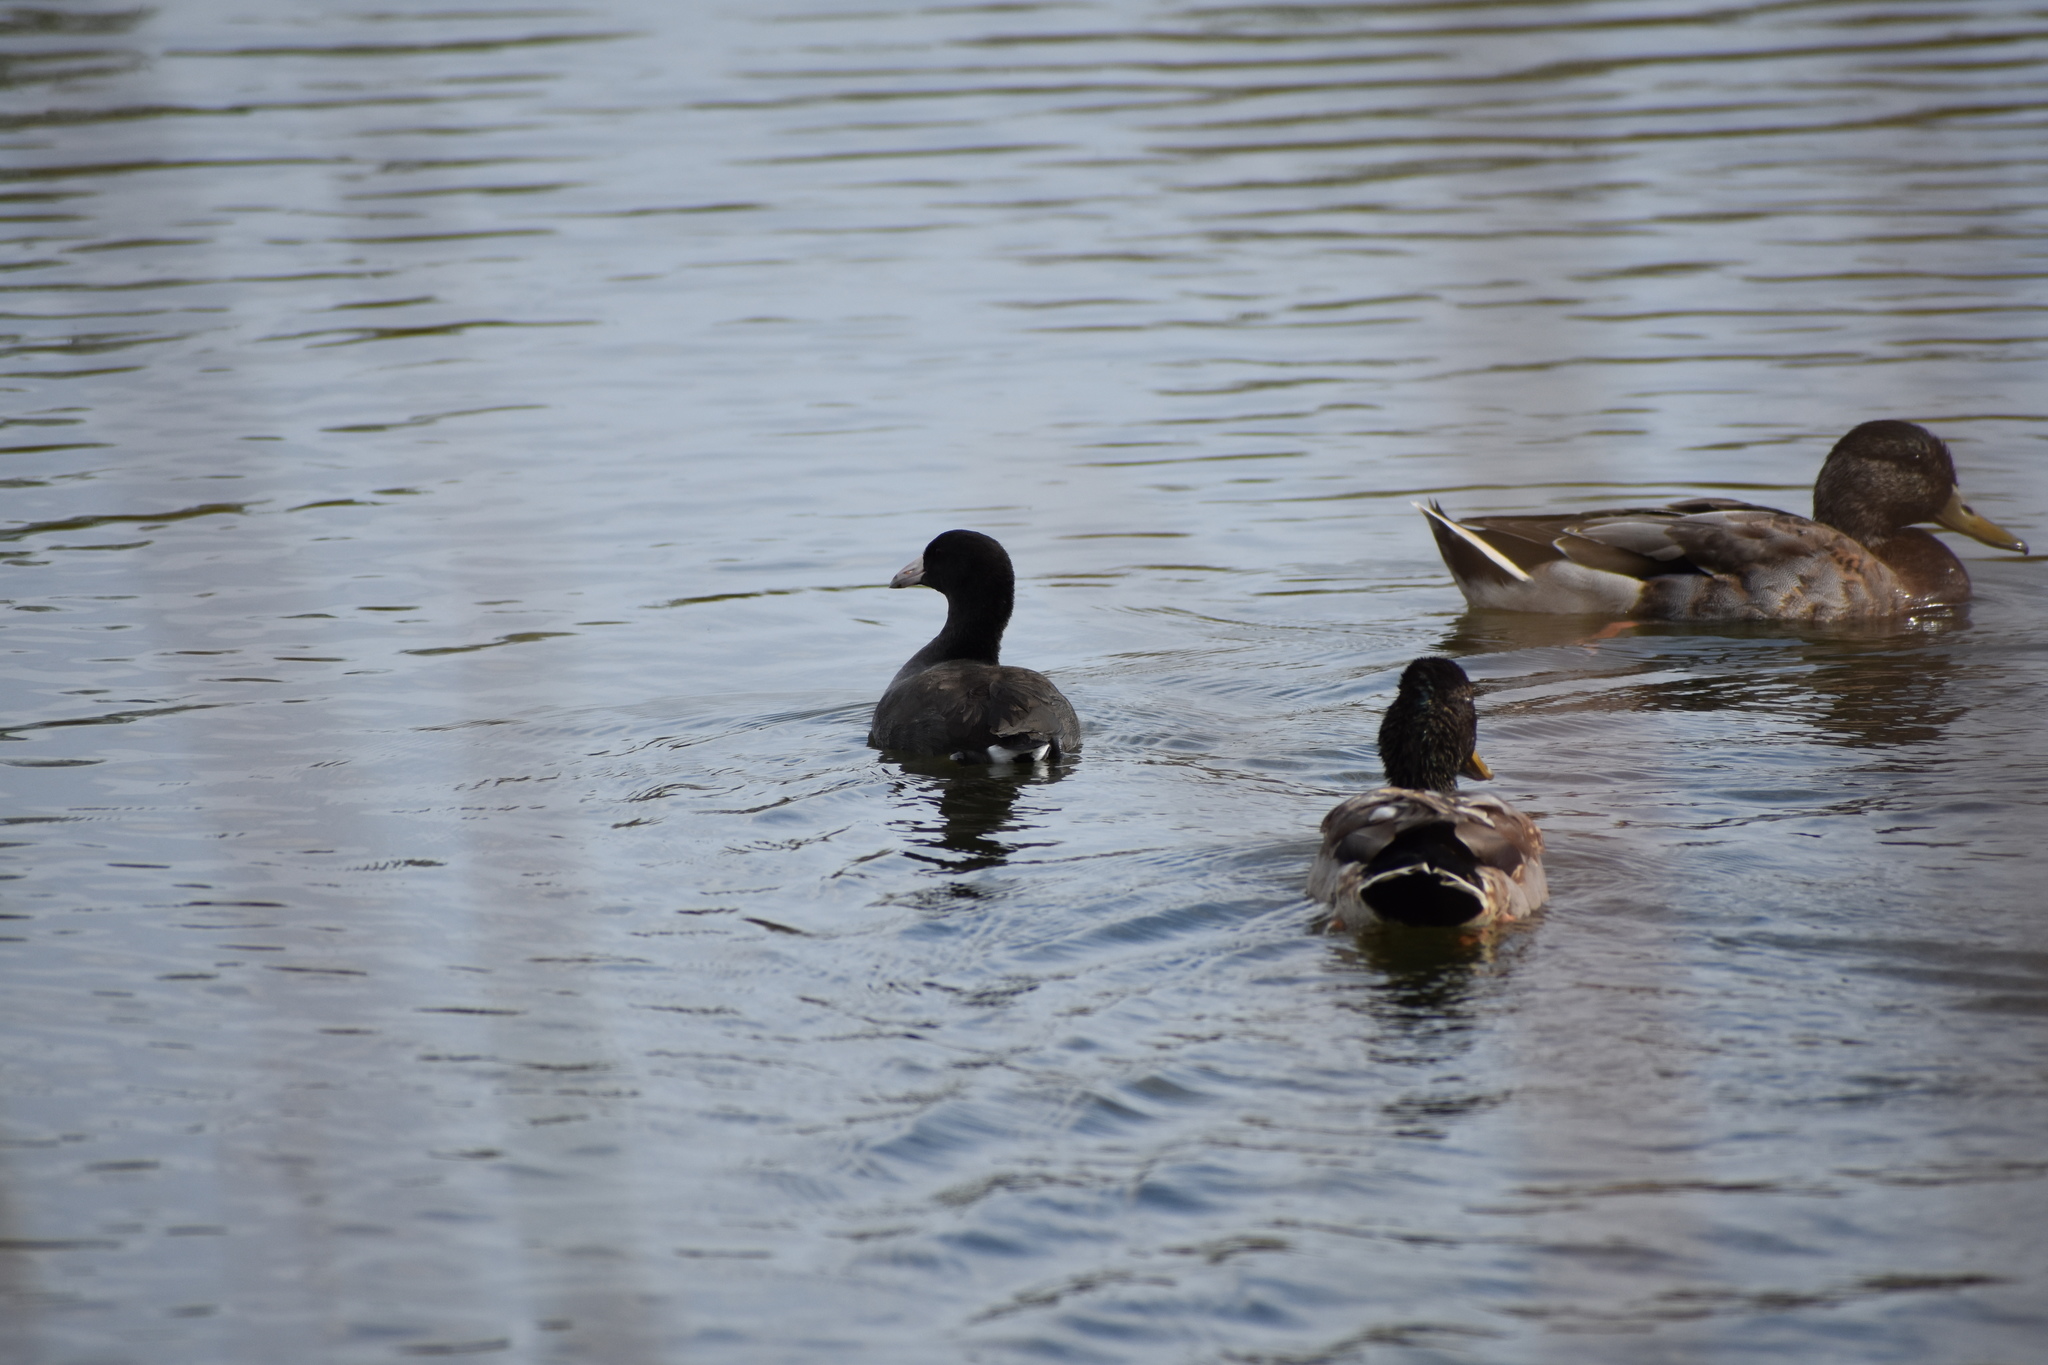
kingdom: Animalia
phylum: Chordata
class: Aves
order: Gruiformes
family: Rallidae
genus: Fulica
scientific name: Fulica americana
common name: American coot
